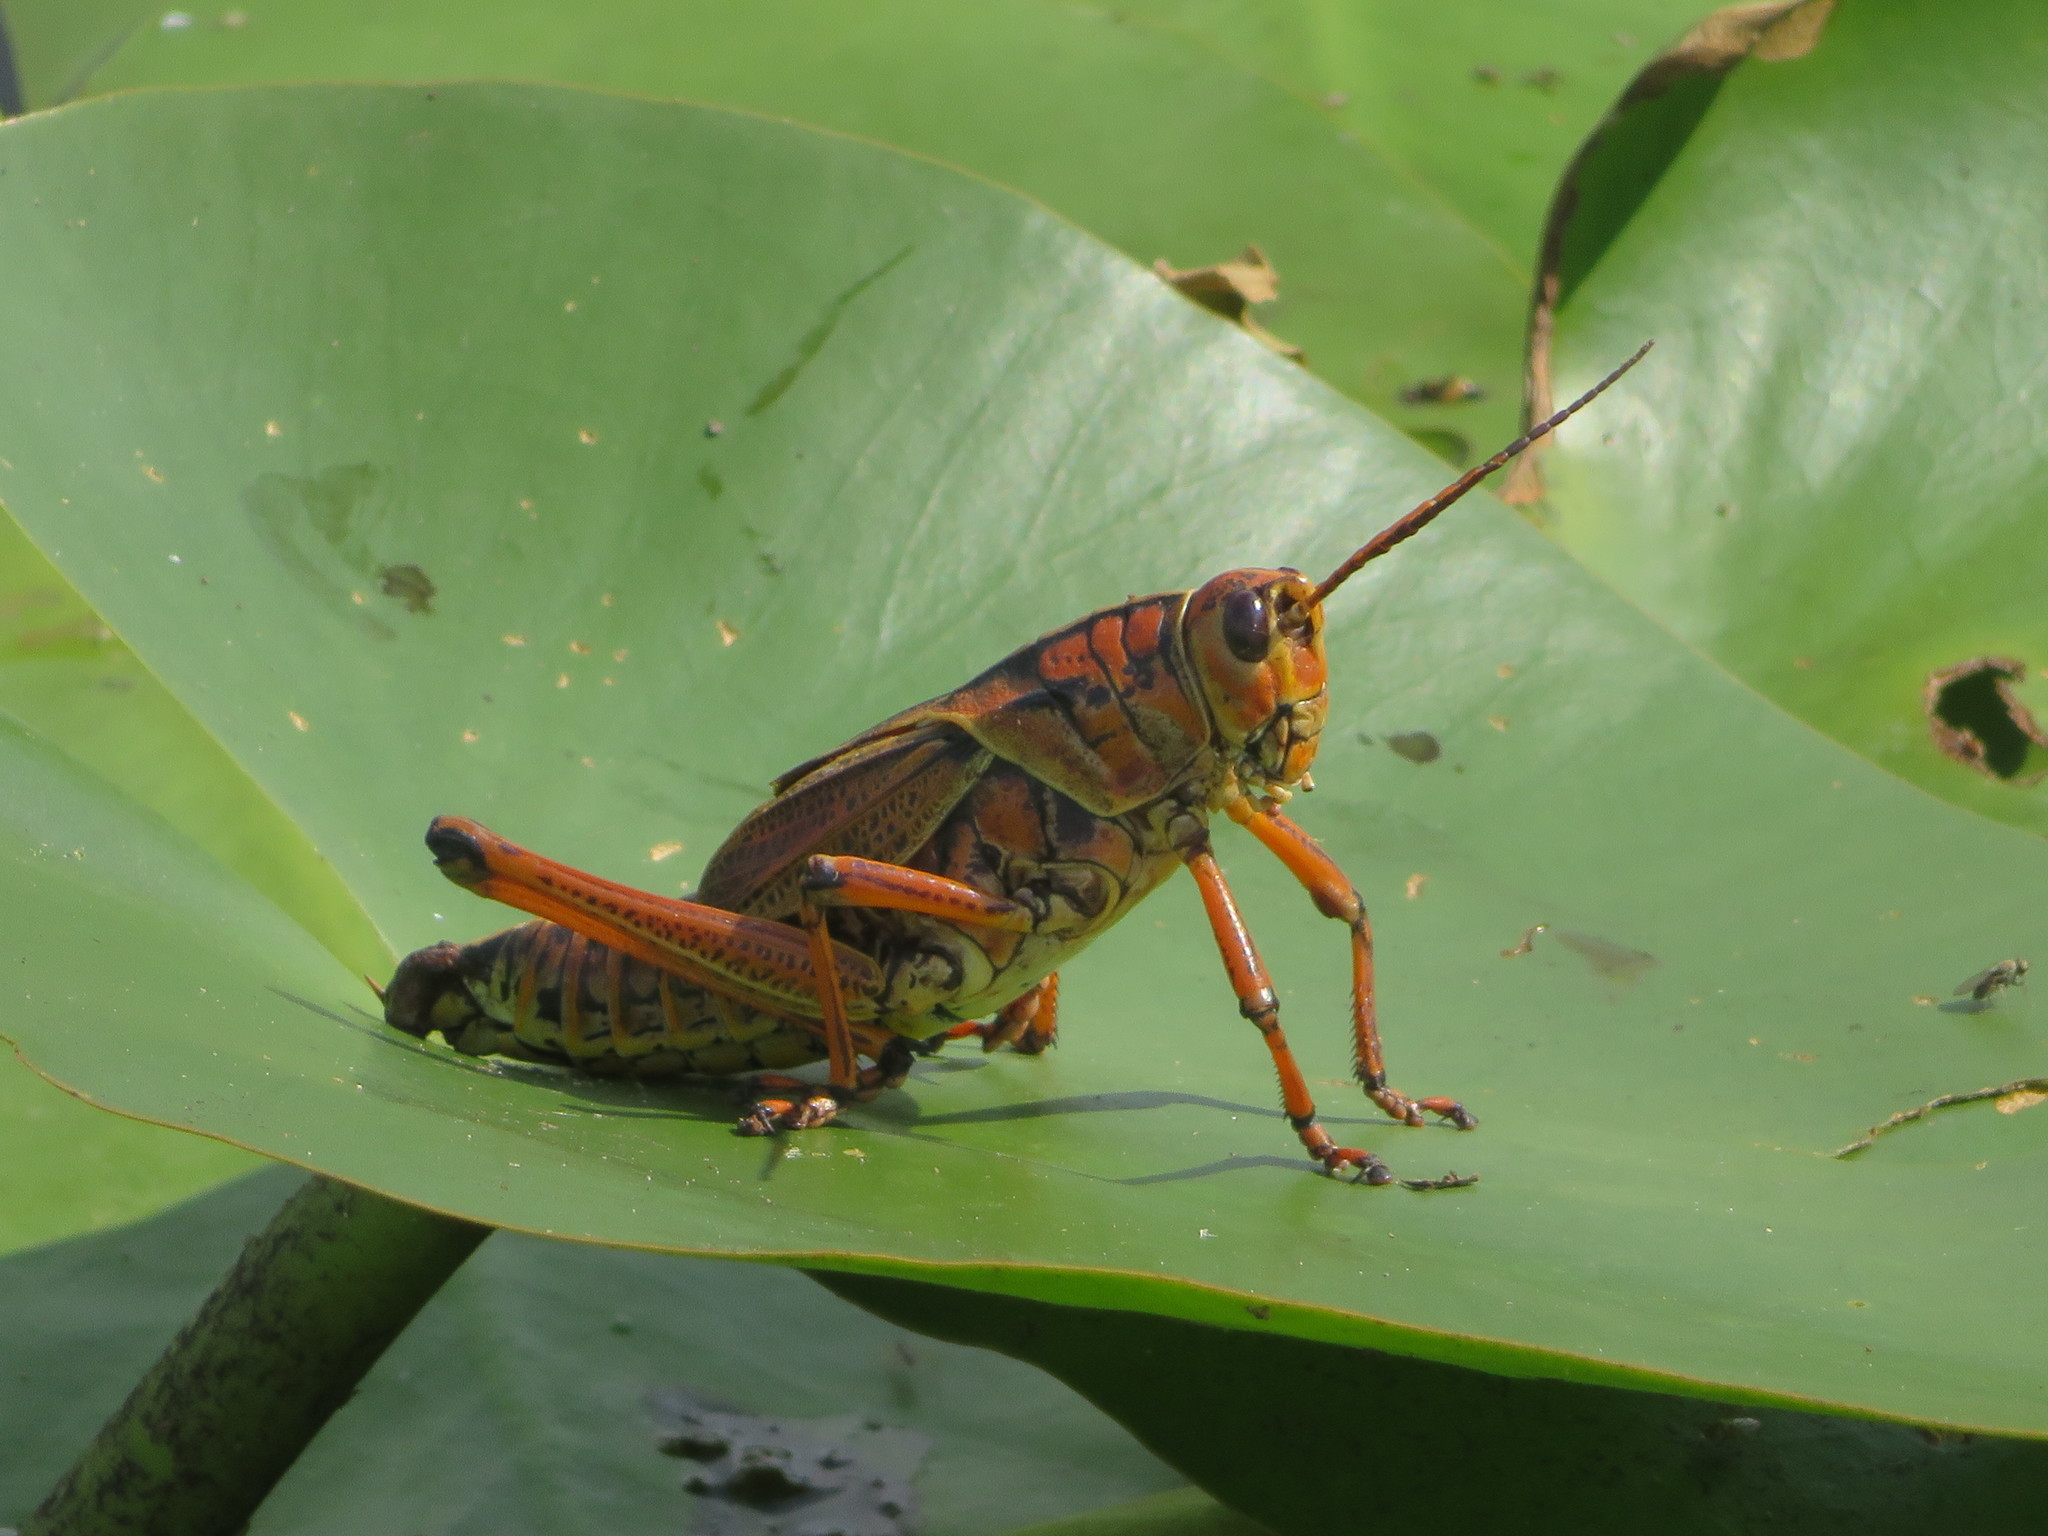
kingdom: Animalia
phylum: Arthropoda
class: Insecta
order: Orthoptera
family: Romaleidae
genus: Romalea
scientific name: Romalea microptera
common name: Eastern lubber grasshopper
